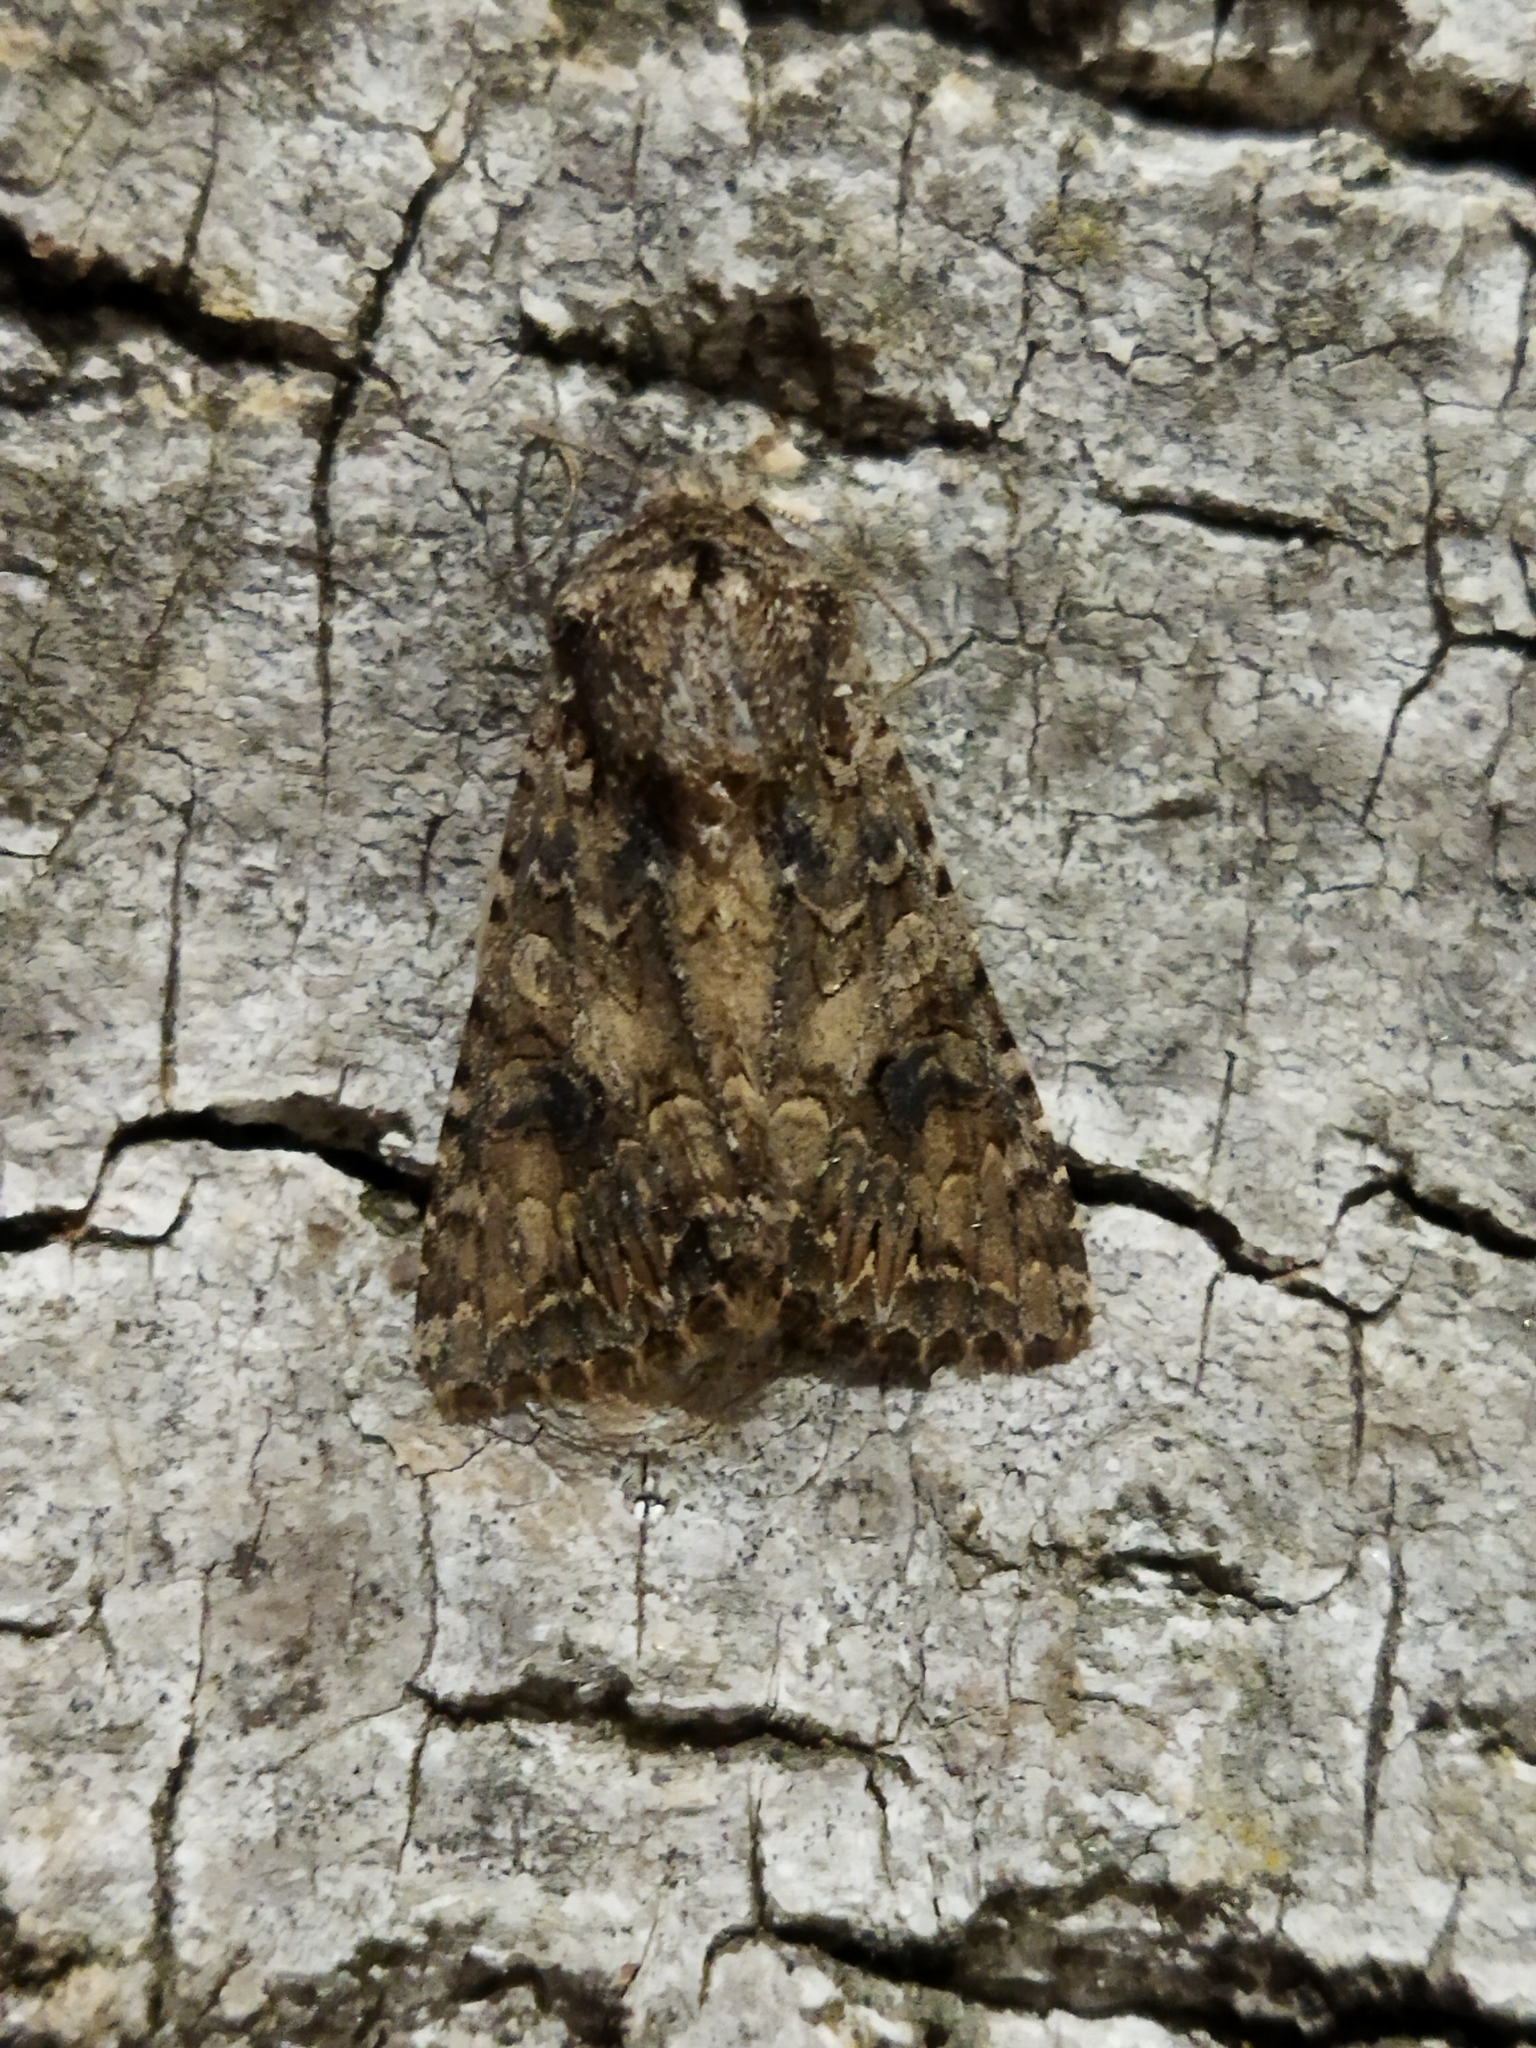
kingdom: Animalia
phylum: Arthropoda
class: Insecta
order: Lepidoptera
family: Noctuidae
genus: Anarta
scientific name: Anarta trifolii
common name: Clover cutworm moth
